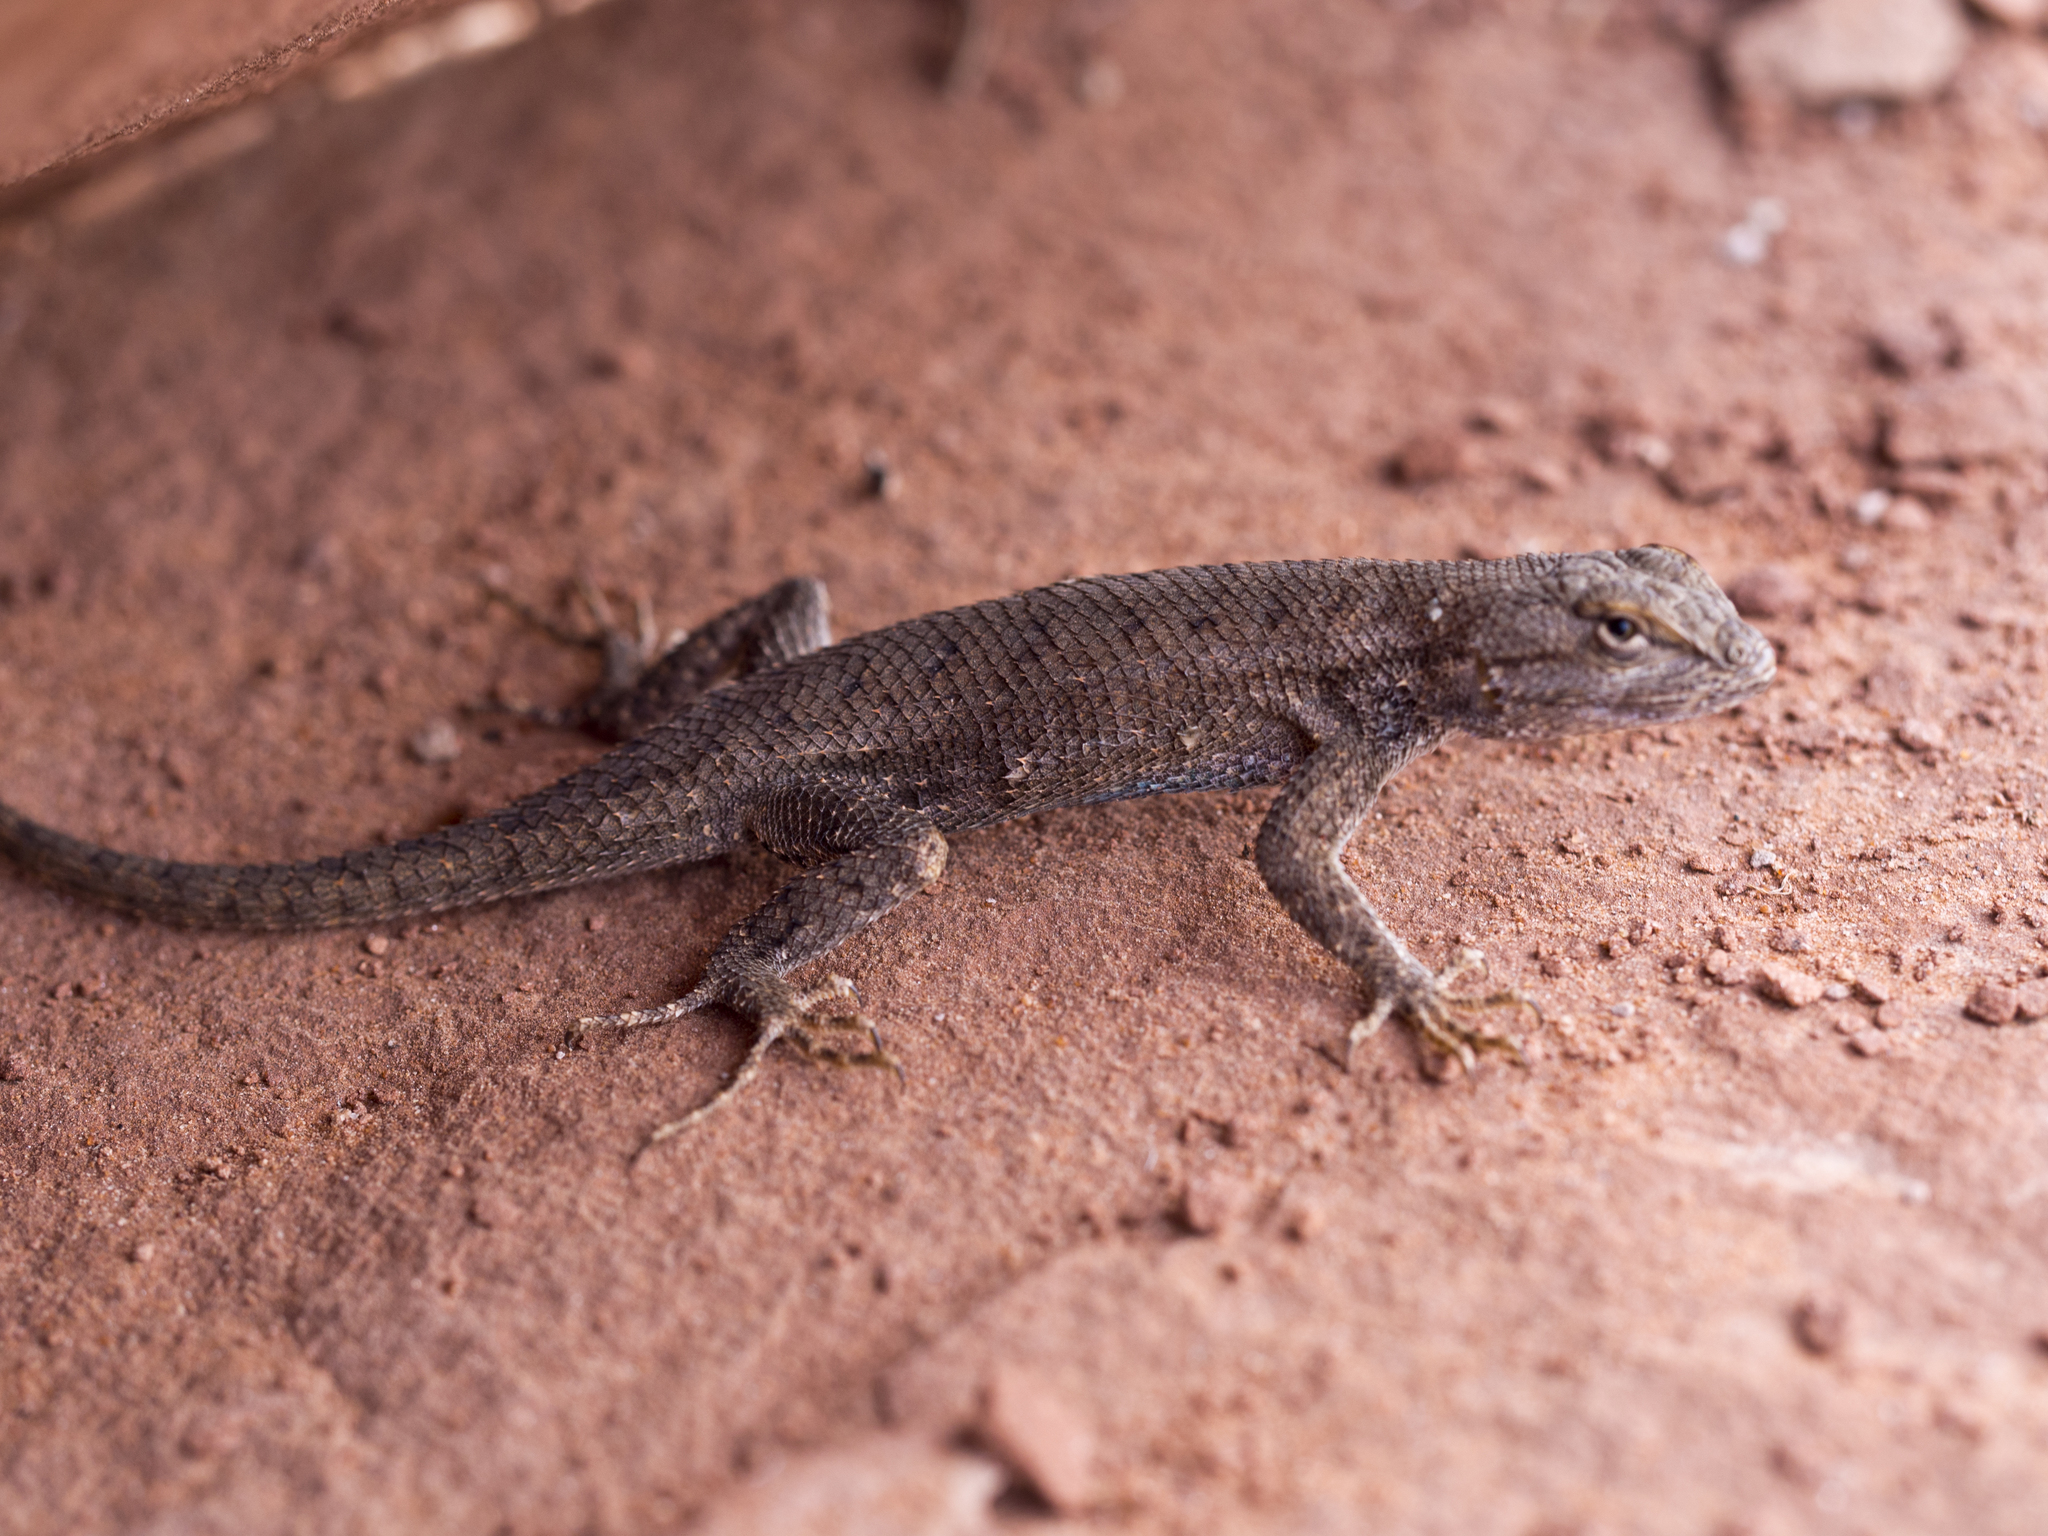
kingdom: Animalia
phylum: Chordata
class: Squamata
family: Phrynosomatidae
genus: Sceloporus
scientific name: Sceloporus tristichus
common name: Plateau fence lizard
